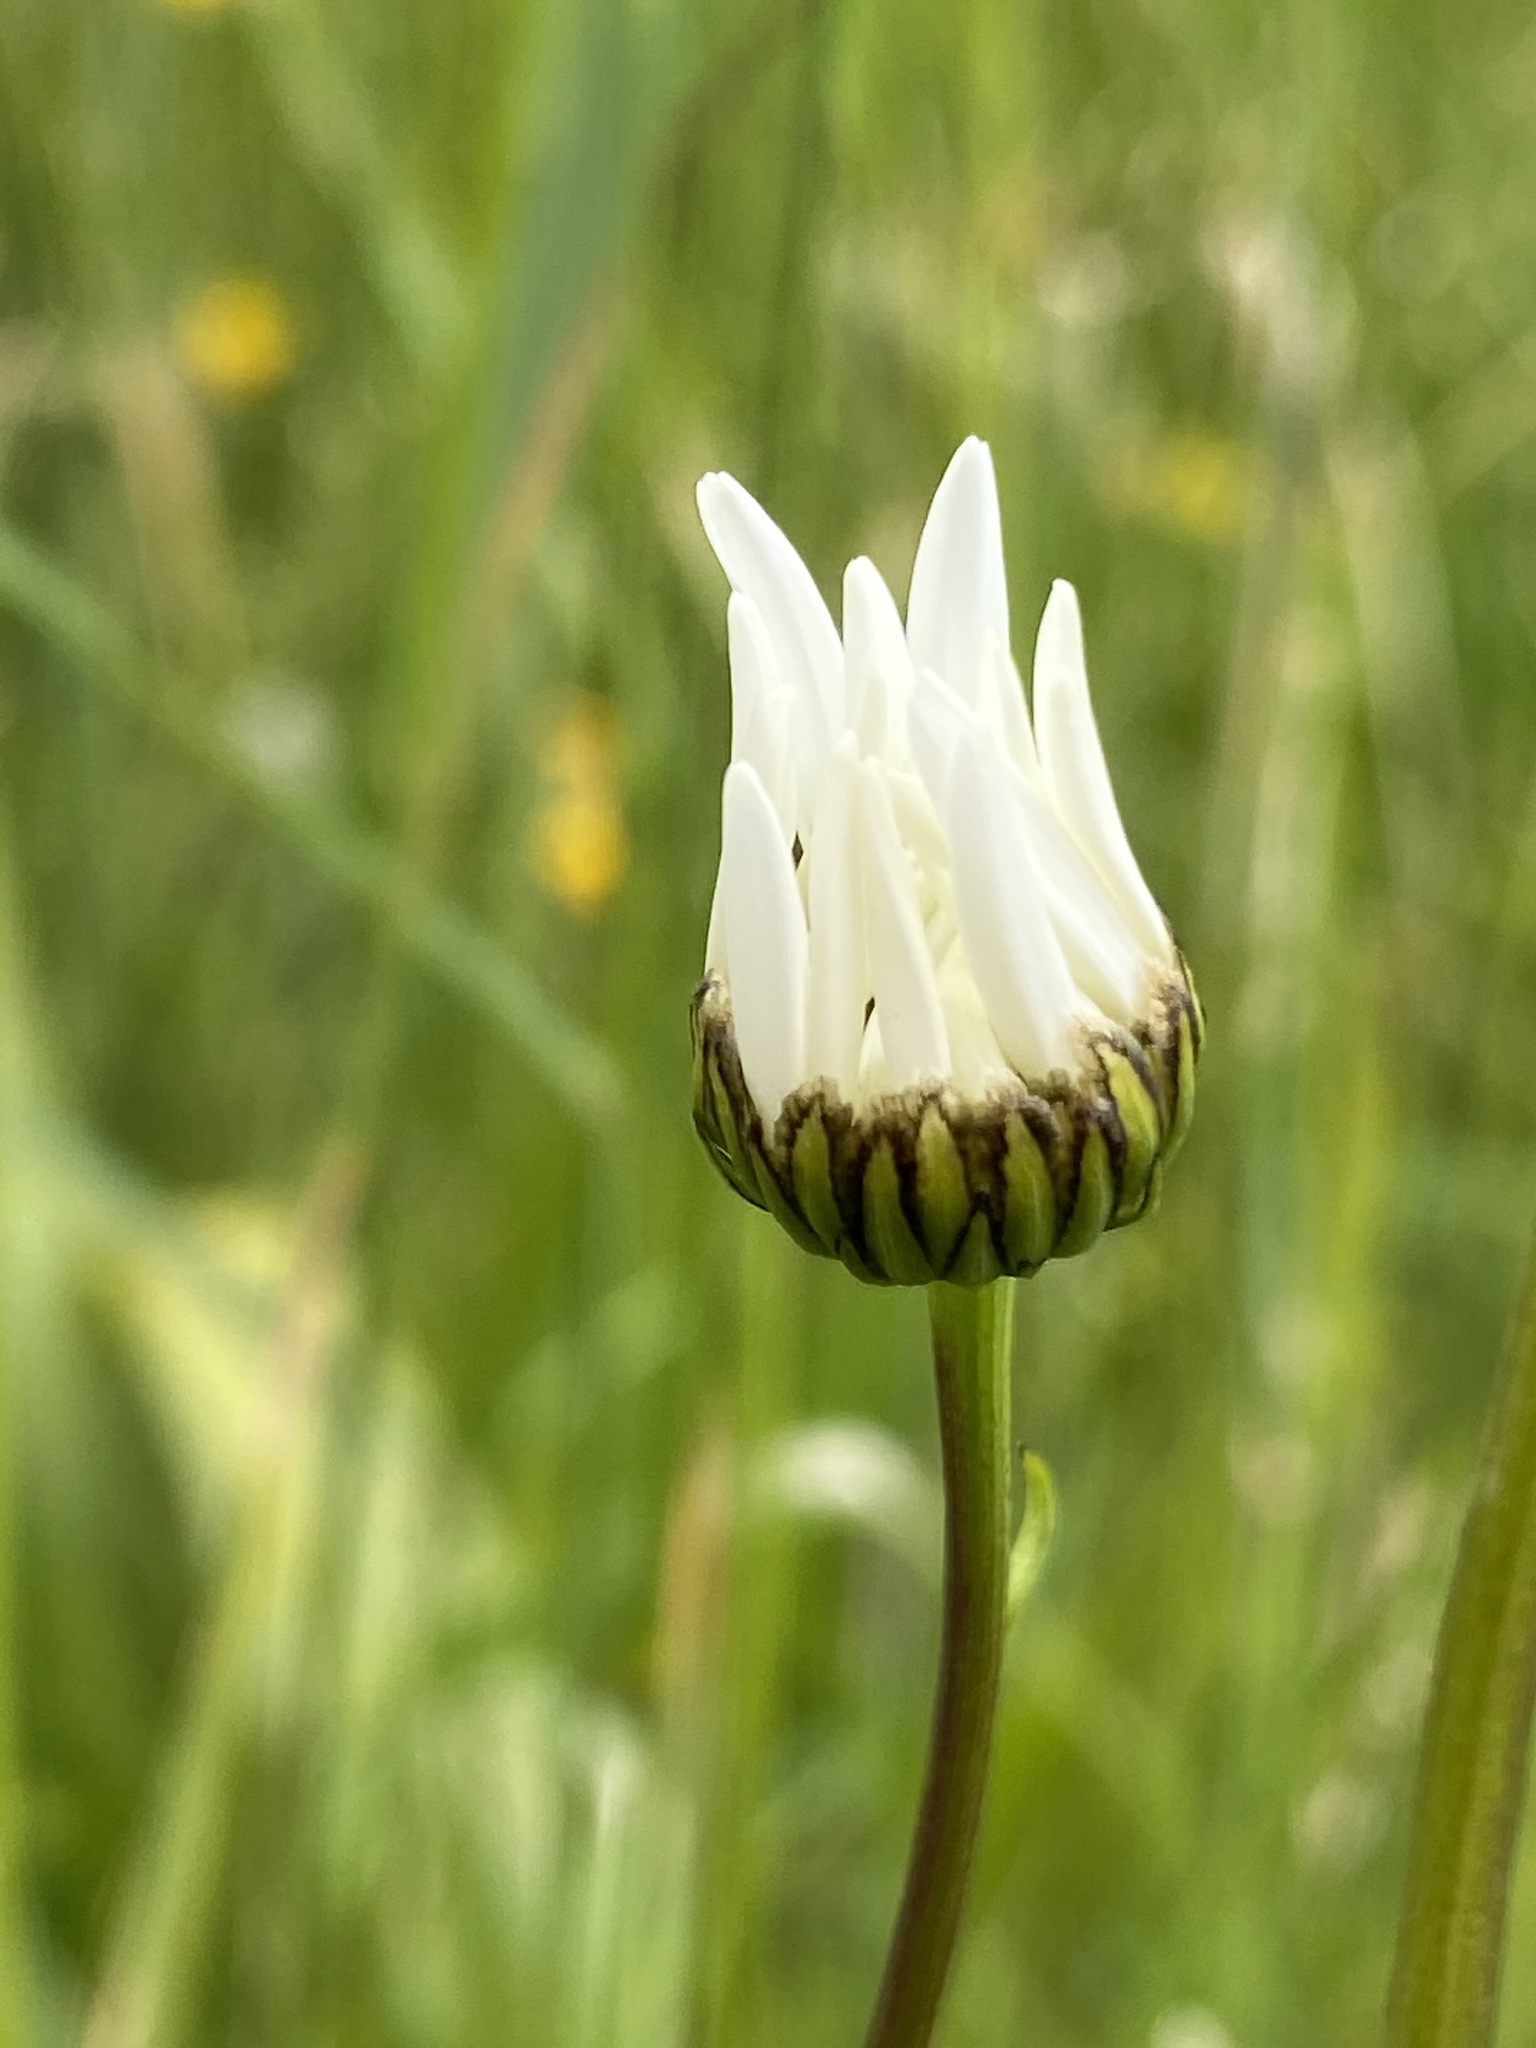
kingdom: Plantae
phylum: Tracheophyta
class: Magnoliopsida
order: Asterales
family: Asteraceae
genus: Leucanthemum
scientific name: Leucanthemum vulgare
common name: Oxeye daisy
